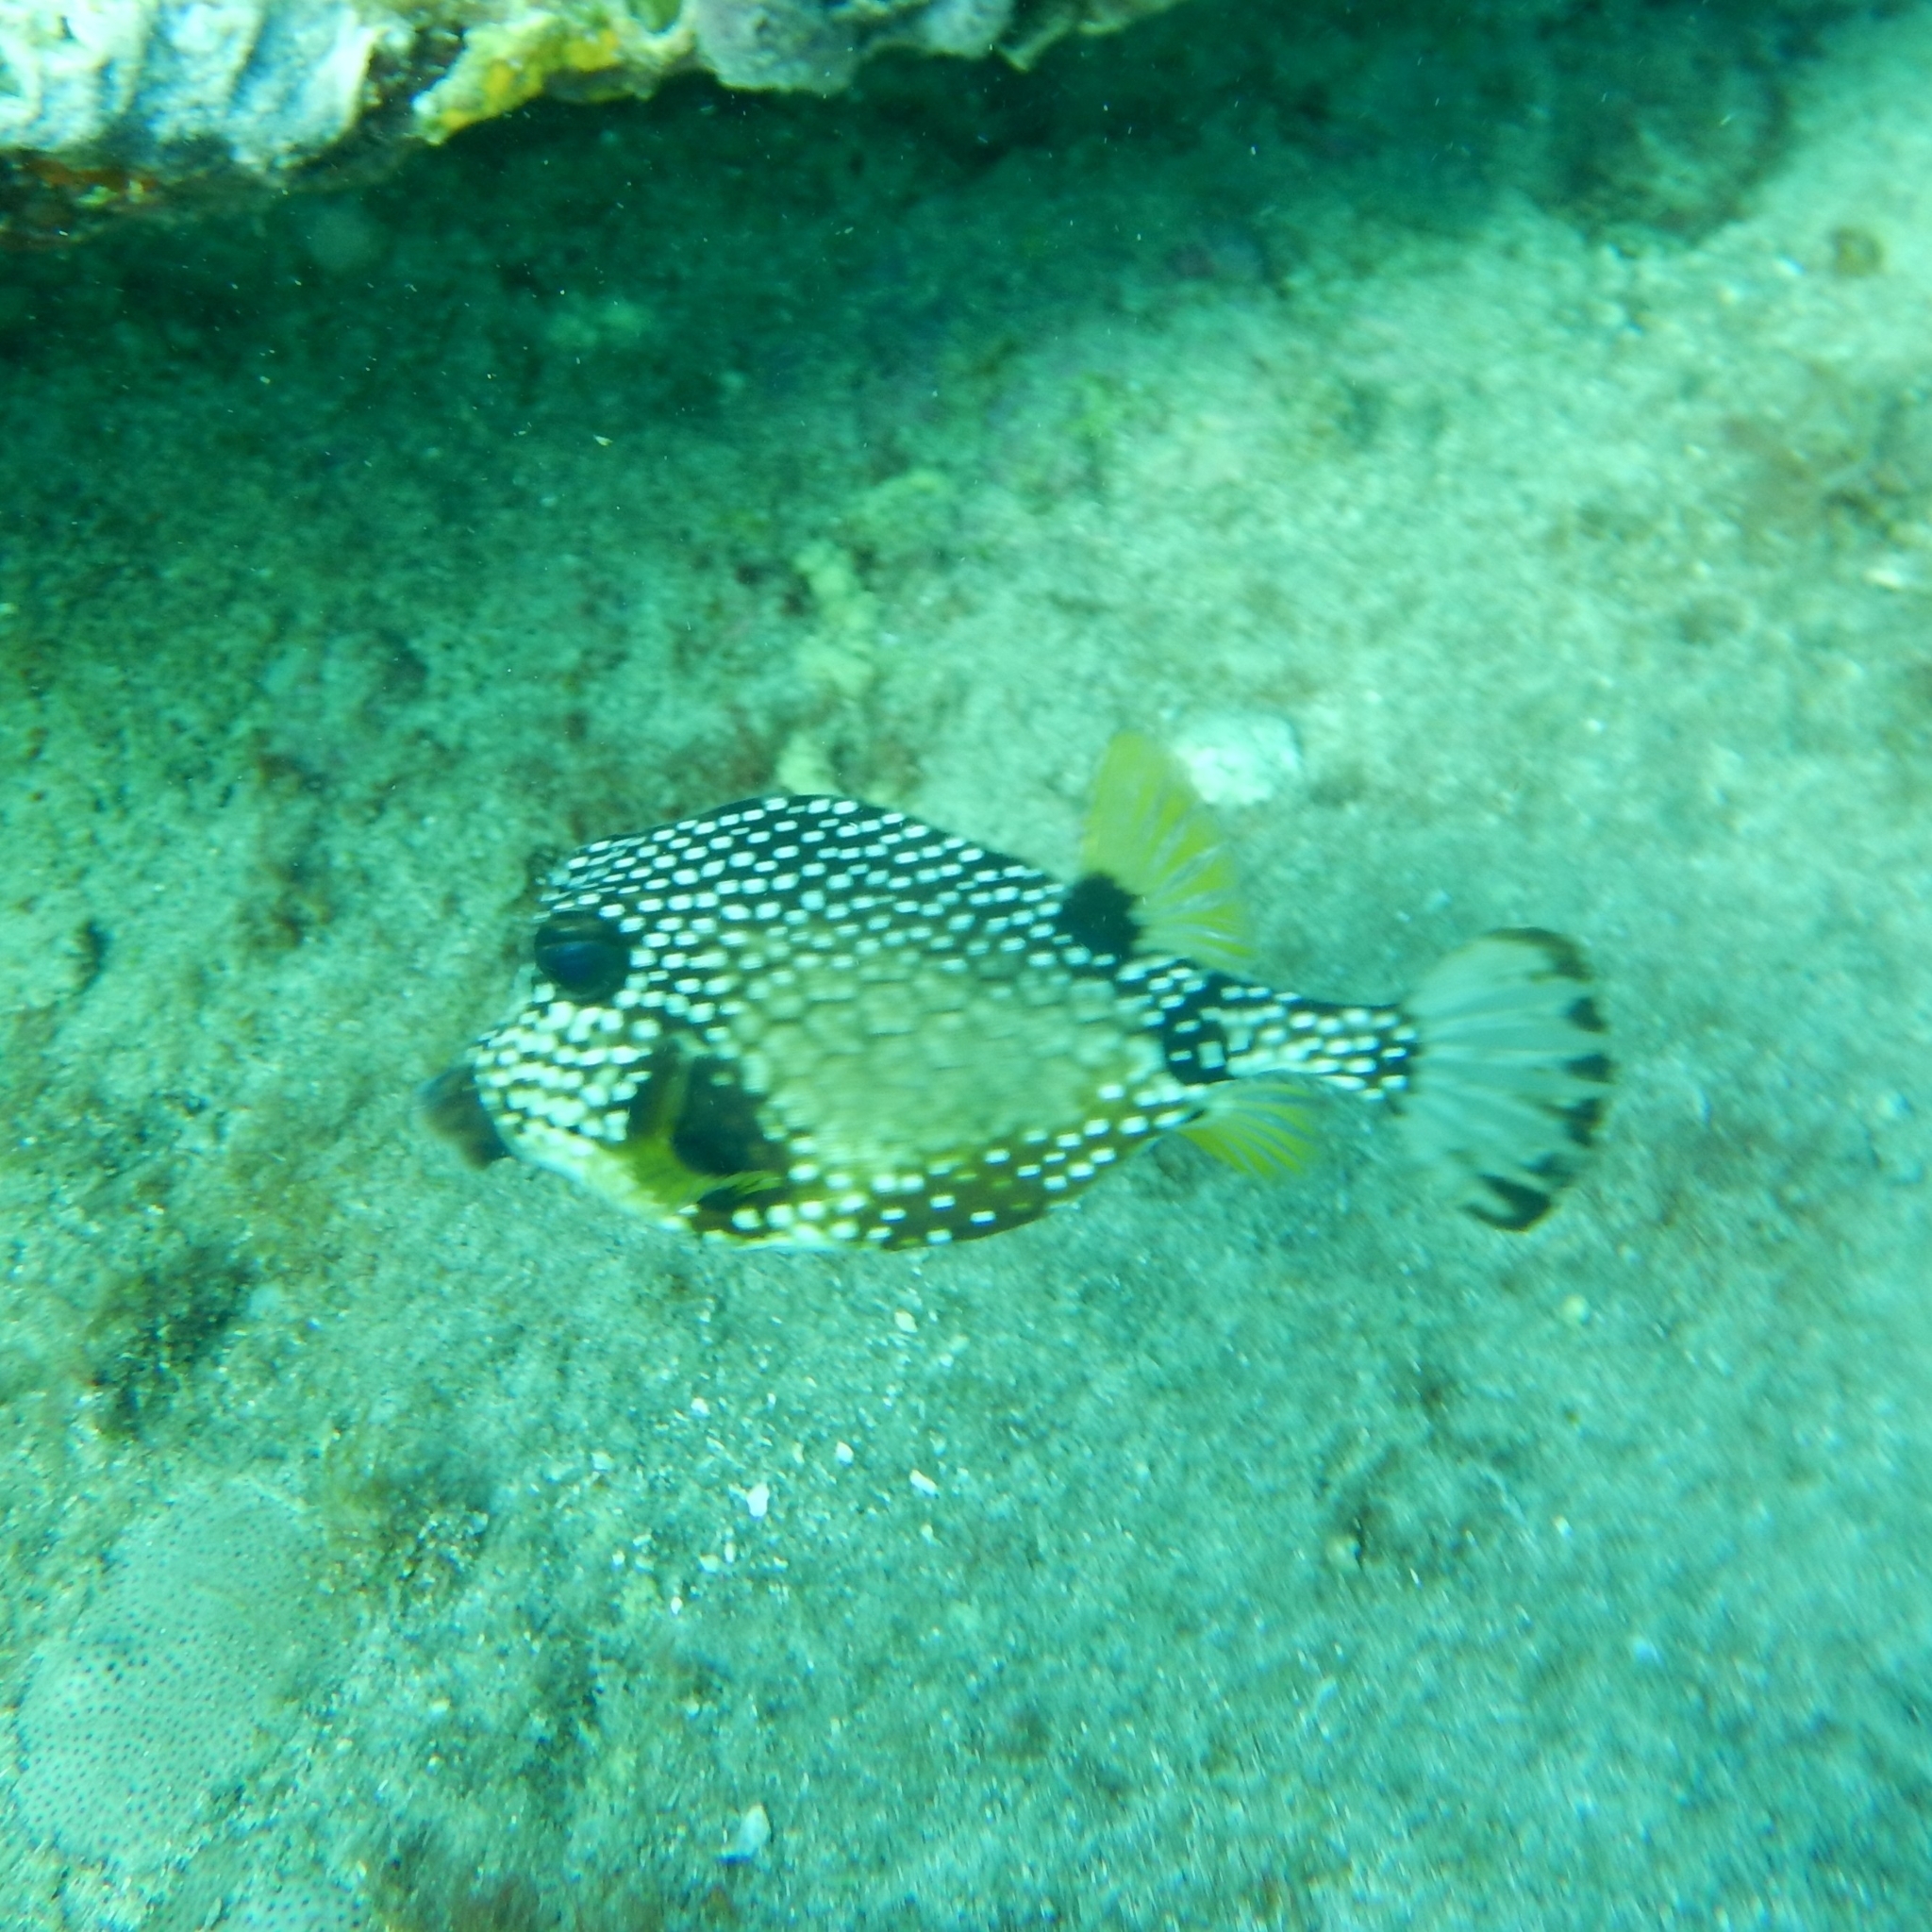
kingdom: Animalia
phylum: Chordata
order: Tetraodontiformes
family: Ostraciidae
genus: Lactophrys
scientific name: Lactophrys triqueter
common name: Smooth trunkfish
